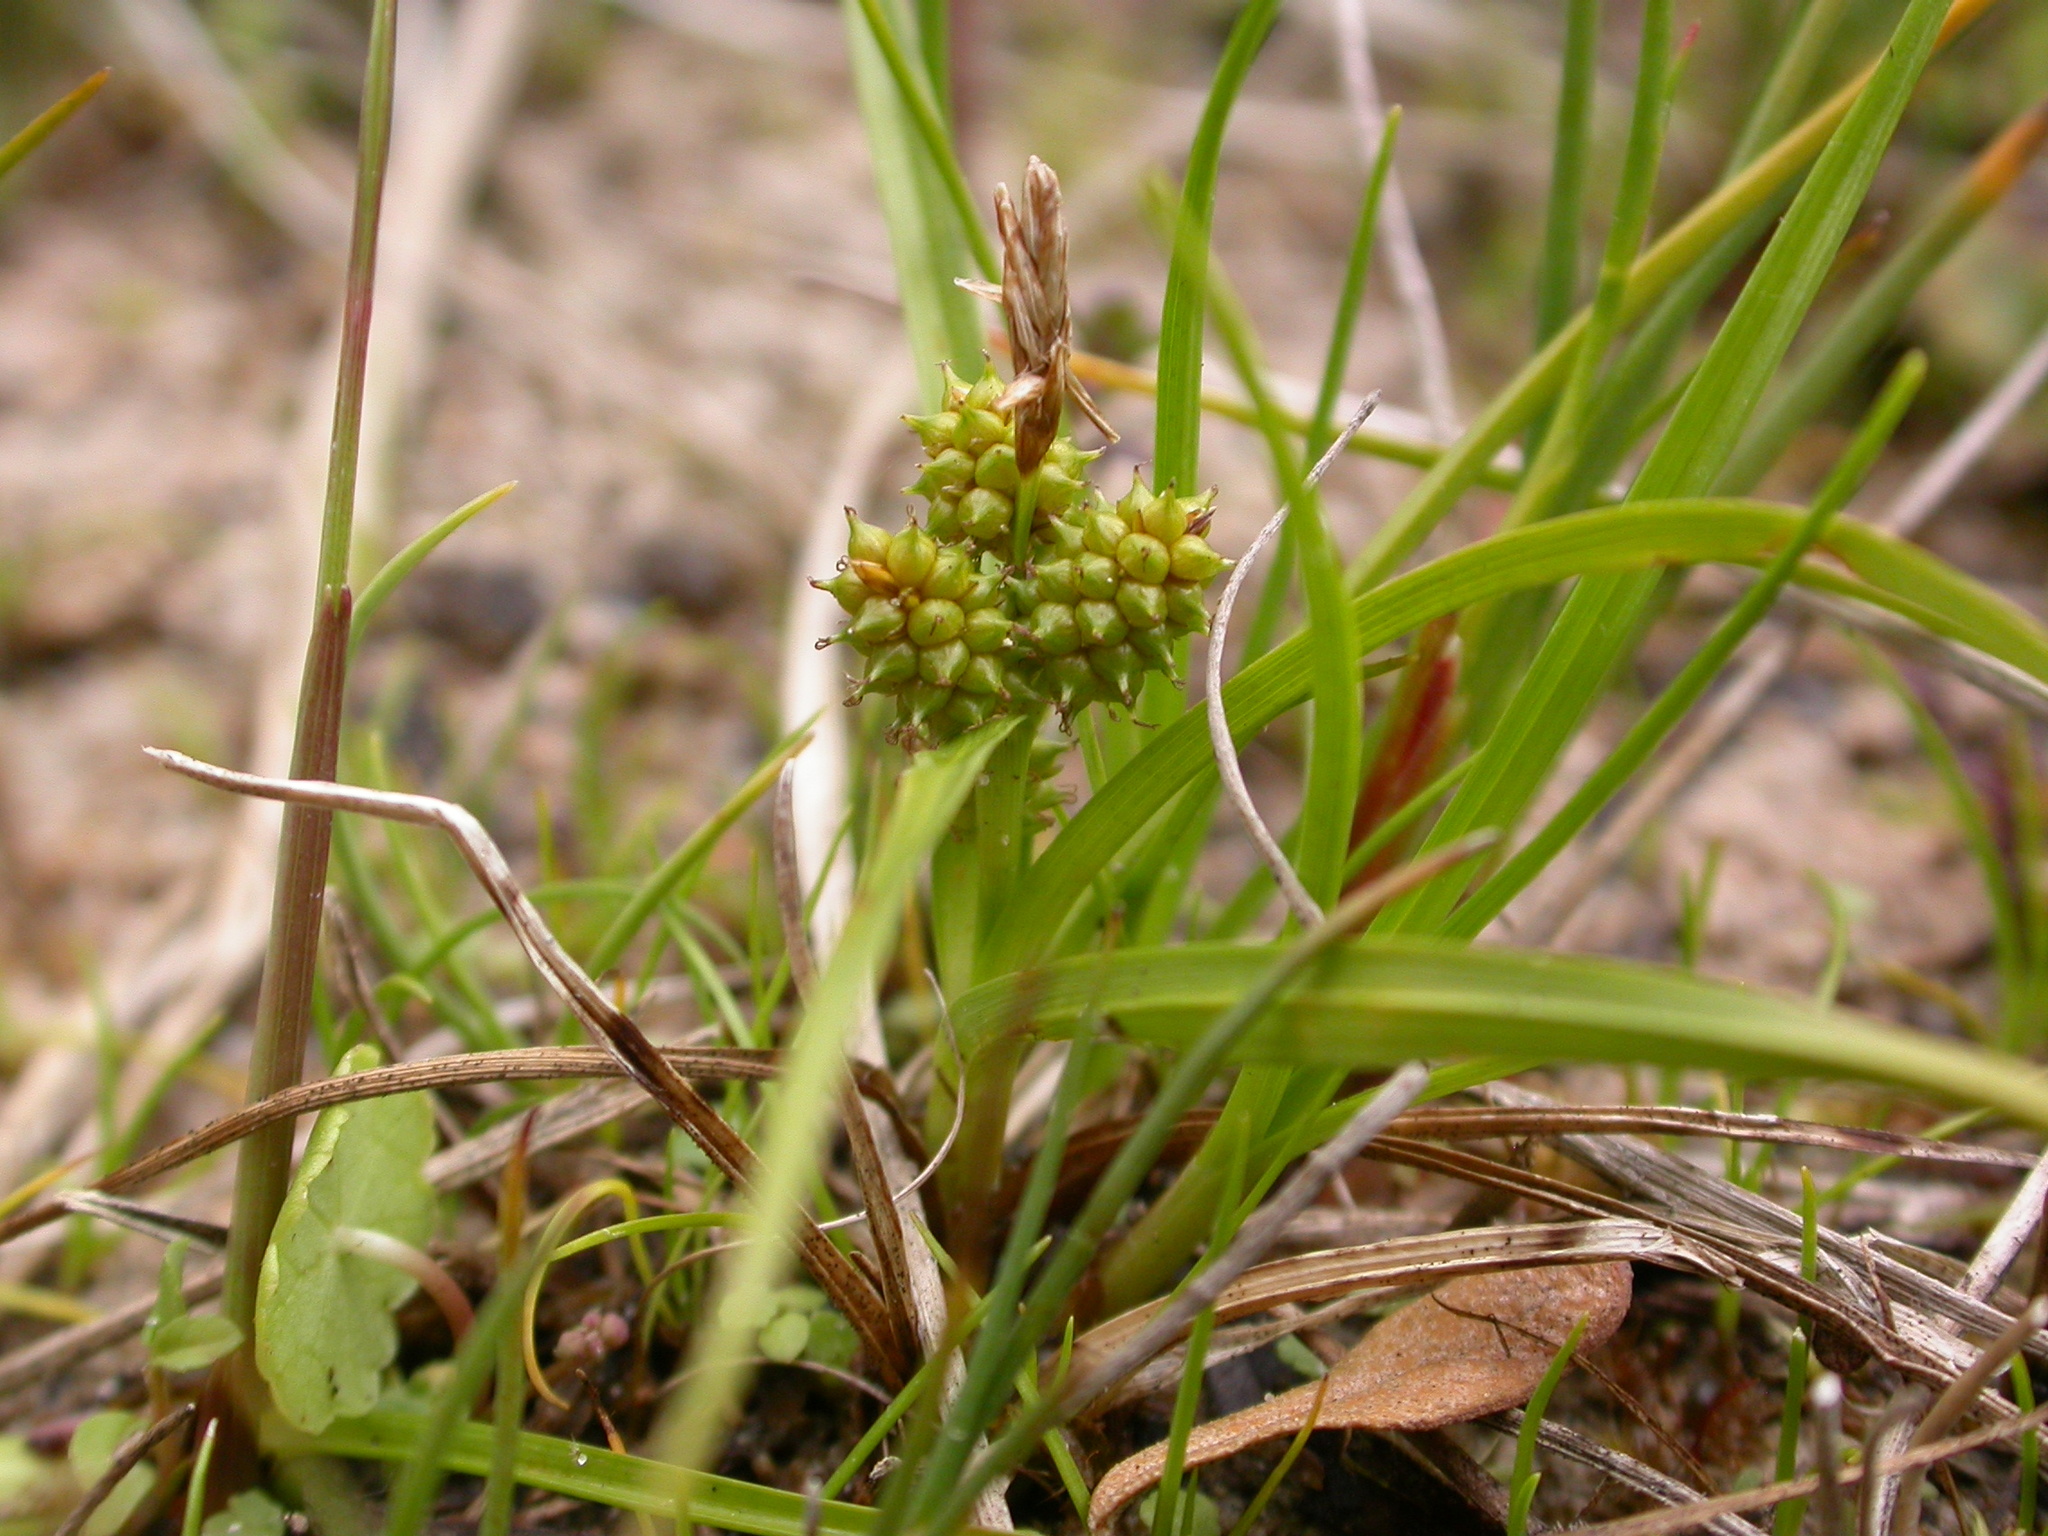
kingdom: Plantae
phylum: Tracheophyta
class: Liliopsida
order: Poales
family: Cyperaceae
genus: Carex
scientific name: Carex
